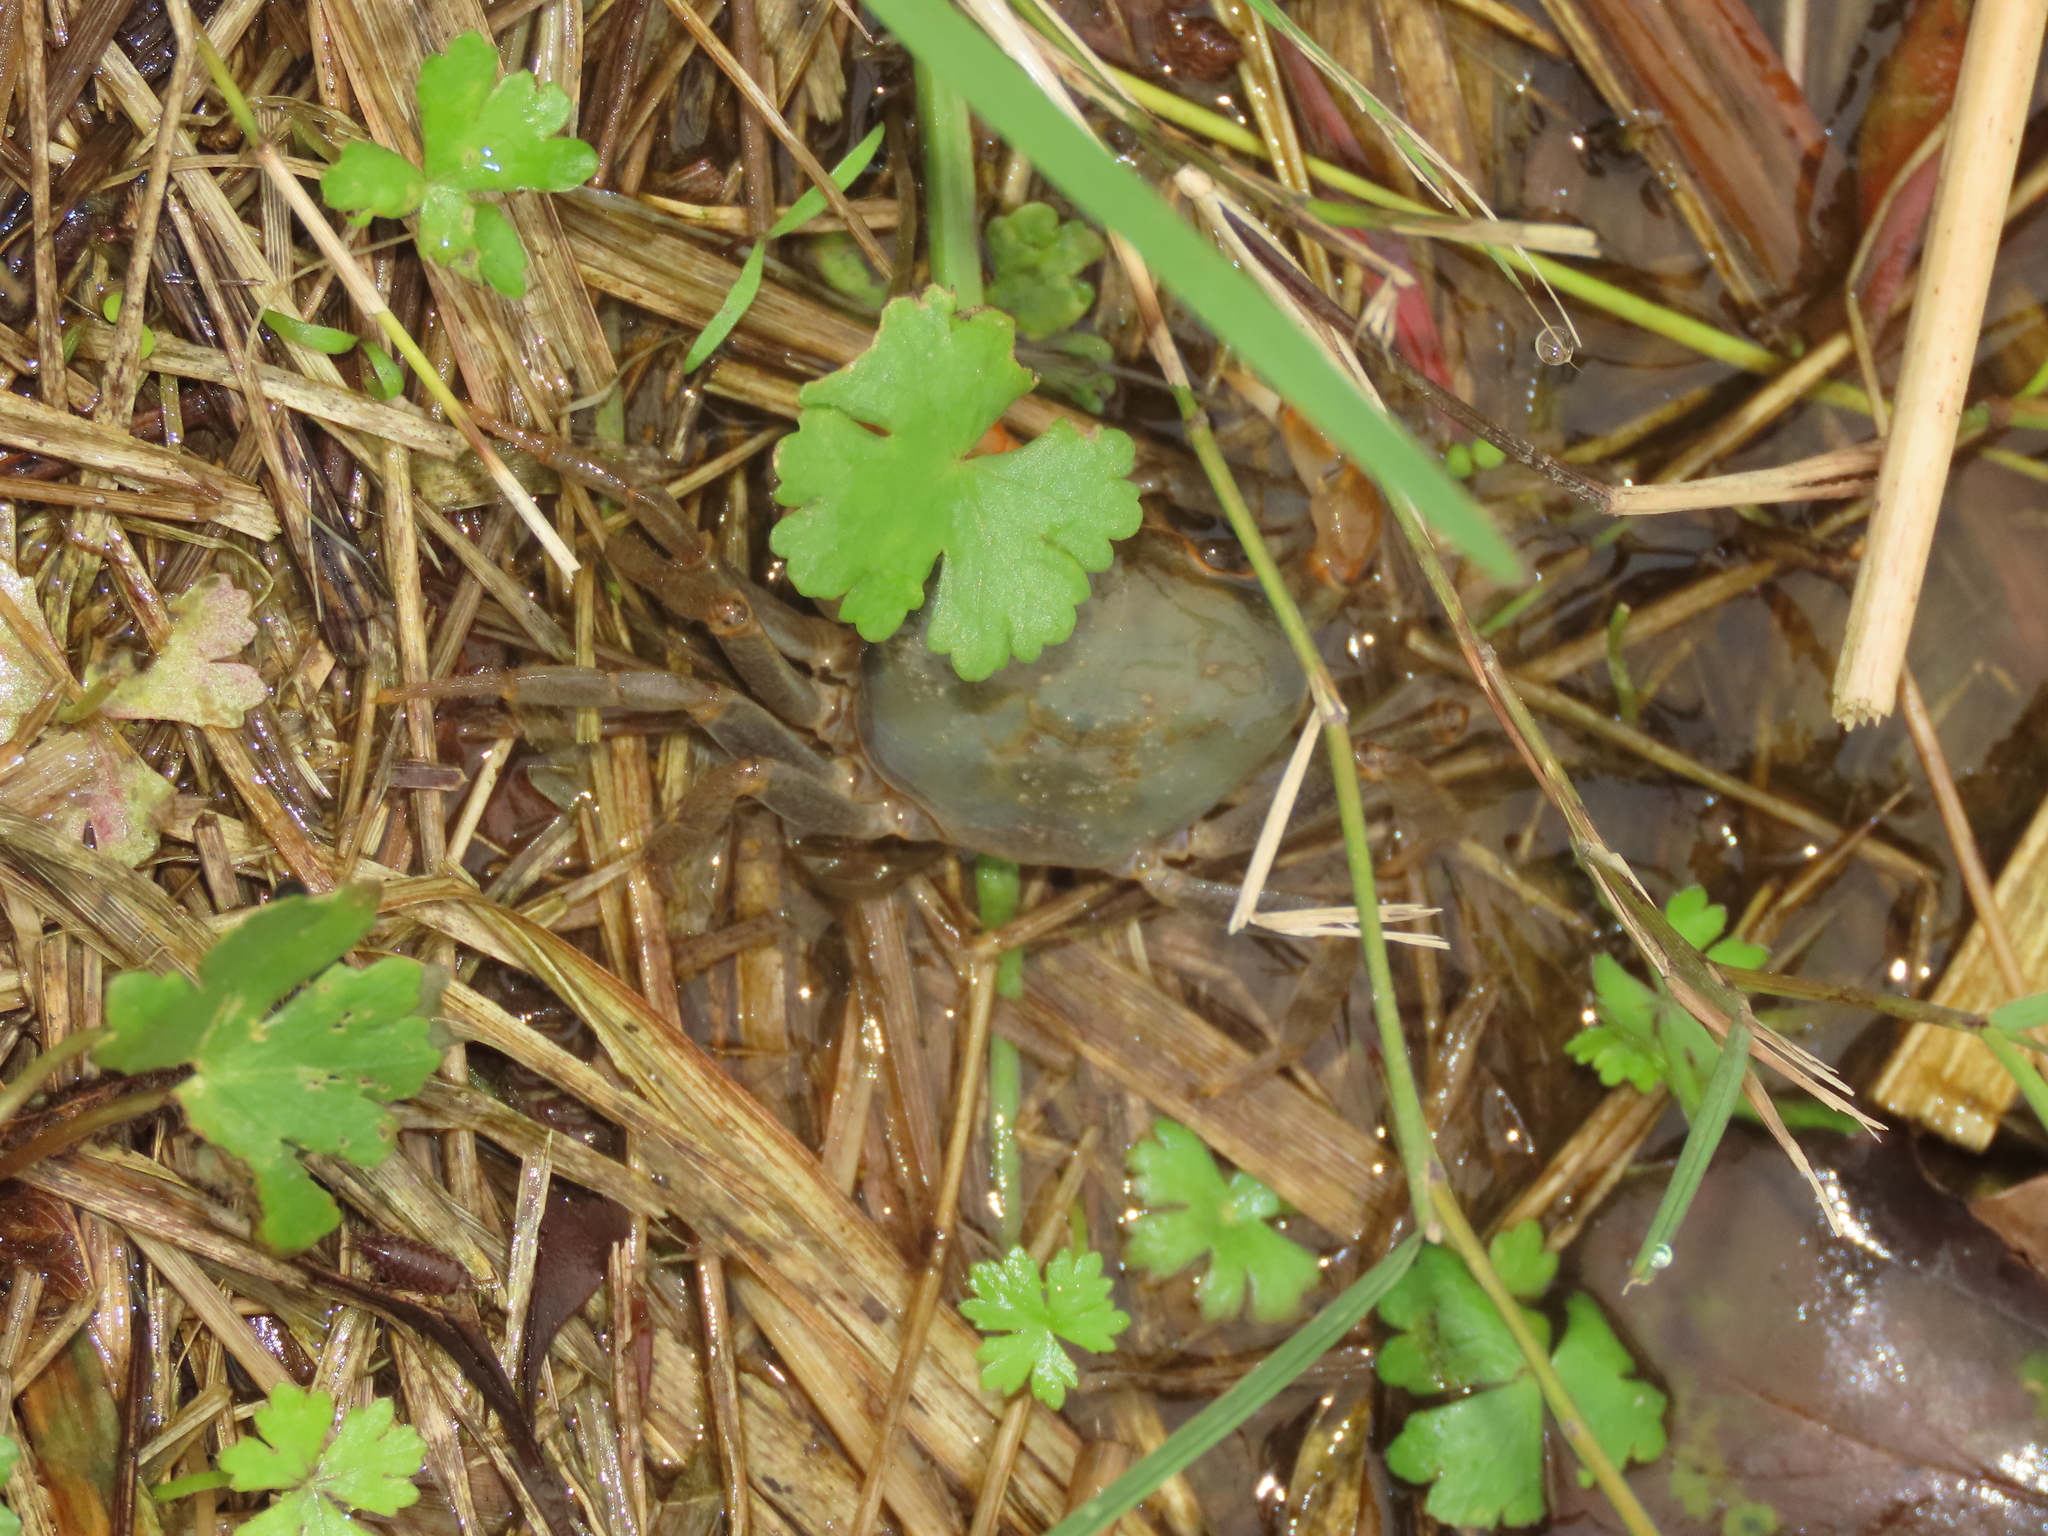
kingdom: Plantae
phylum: Tracheophyta
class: Magnoliopsida
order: Apiales
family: Araliaceae
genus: Hydrocotyle
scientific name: Hydrocotyle batrachium
